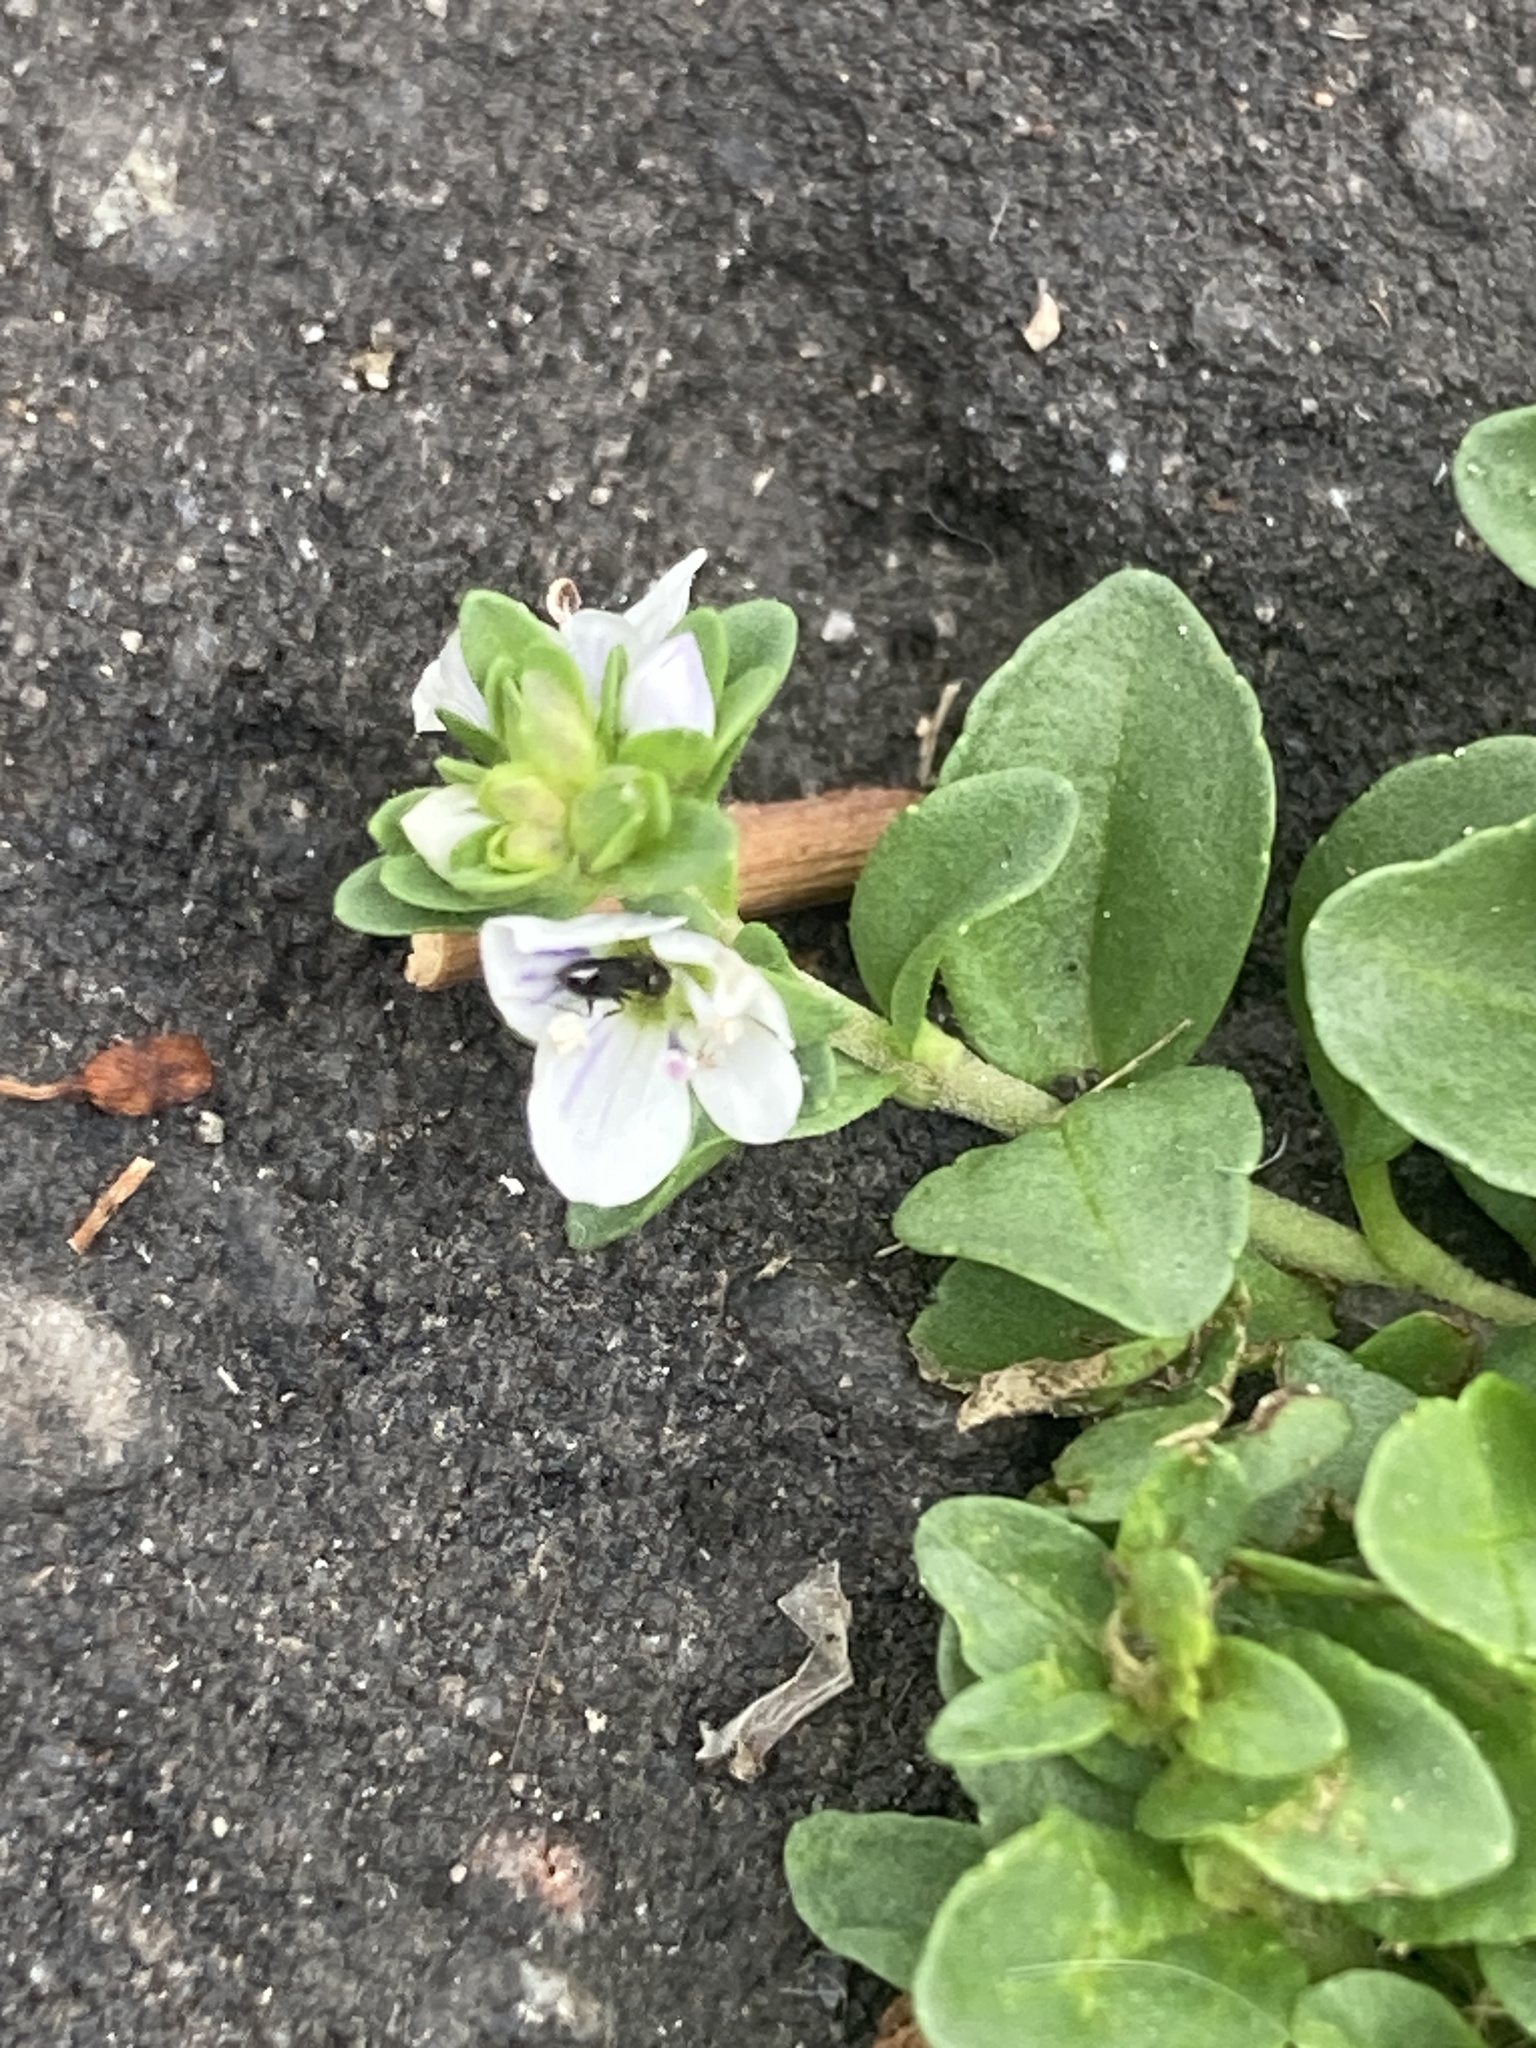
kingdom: Plantae
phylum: Tracheophyta
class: Magnoliopsida
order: Lamiales
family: Plantaginaceae
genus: Veronica
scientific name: Veronica serpyllifolia
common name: Thyme-leaved speedwell
